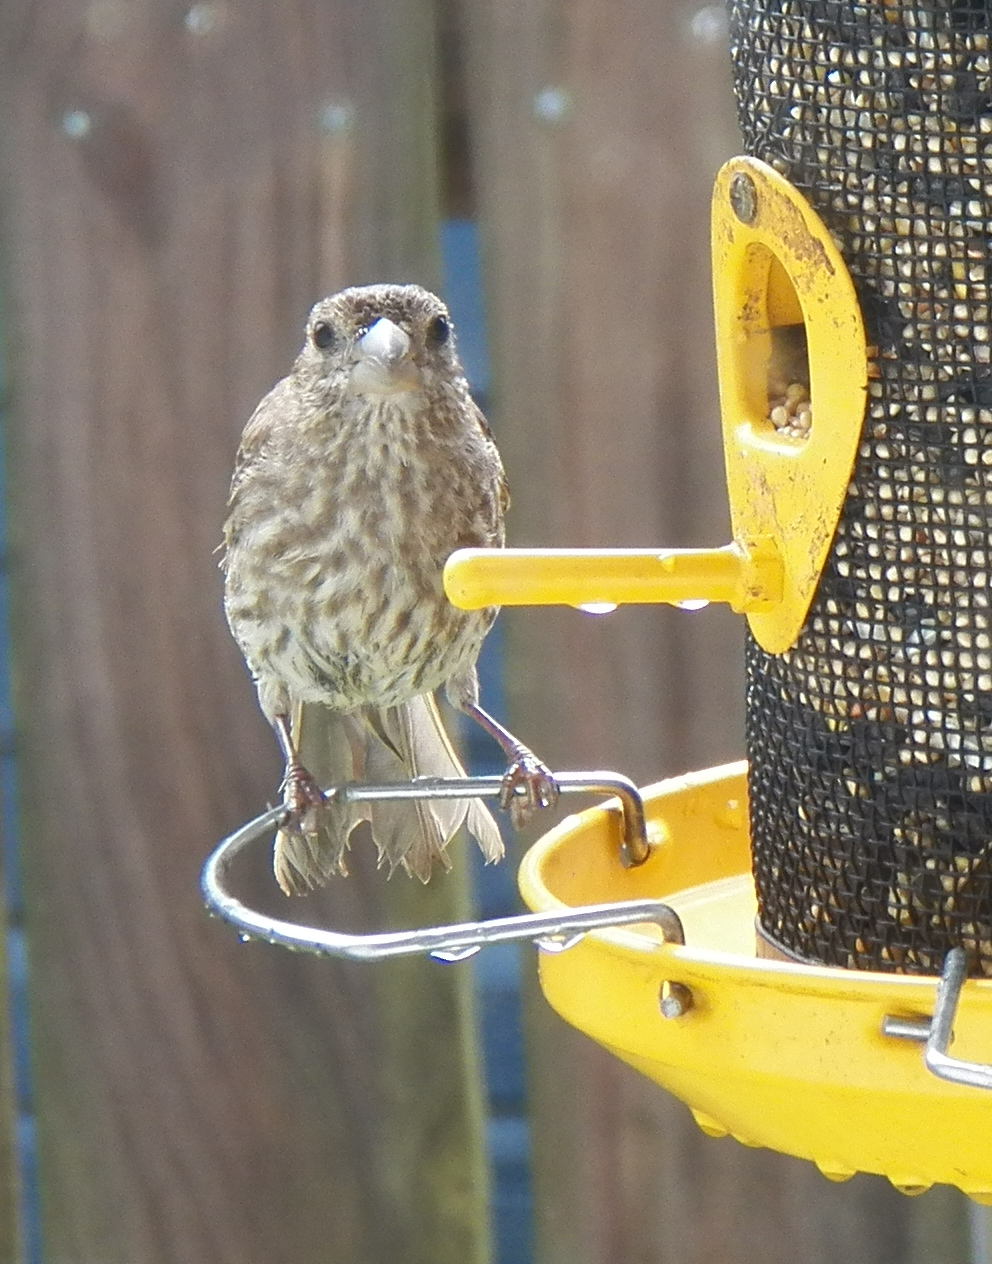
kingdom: Animalia
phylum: Chordata
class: Aves
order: Passeriformes
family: Fringillidae
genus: Haemorhous
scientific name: Haemorhous mexicanus
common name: House finch
